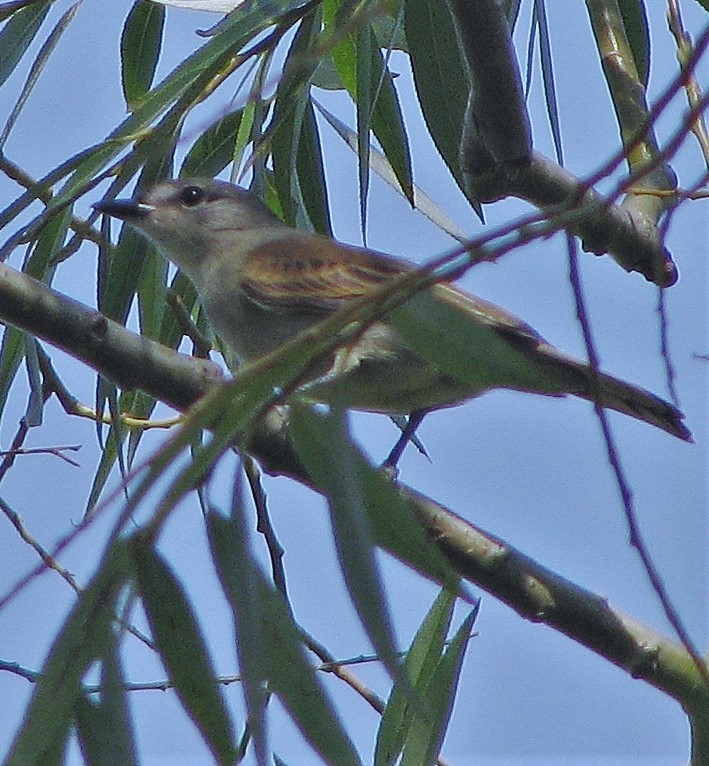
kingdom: Animalia
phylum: Chordata
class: Aves
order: Passeriformes
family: Cotingidae
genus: Pachyramphus
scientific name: Pachyramphus polychopterus
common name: White-winged becard
